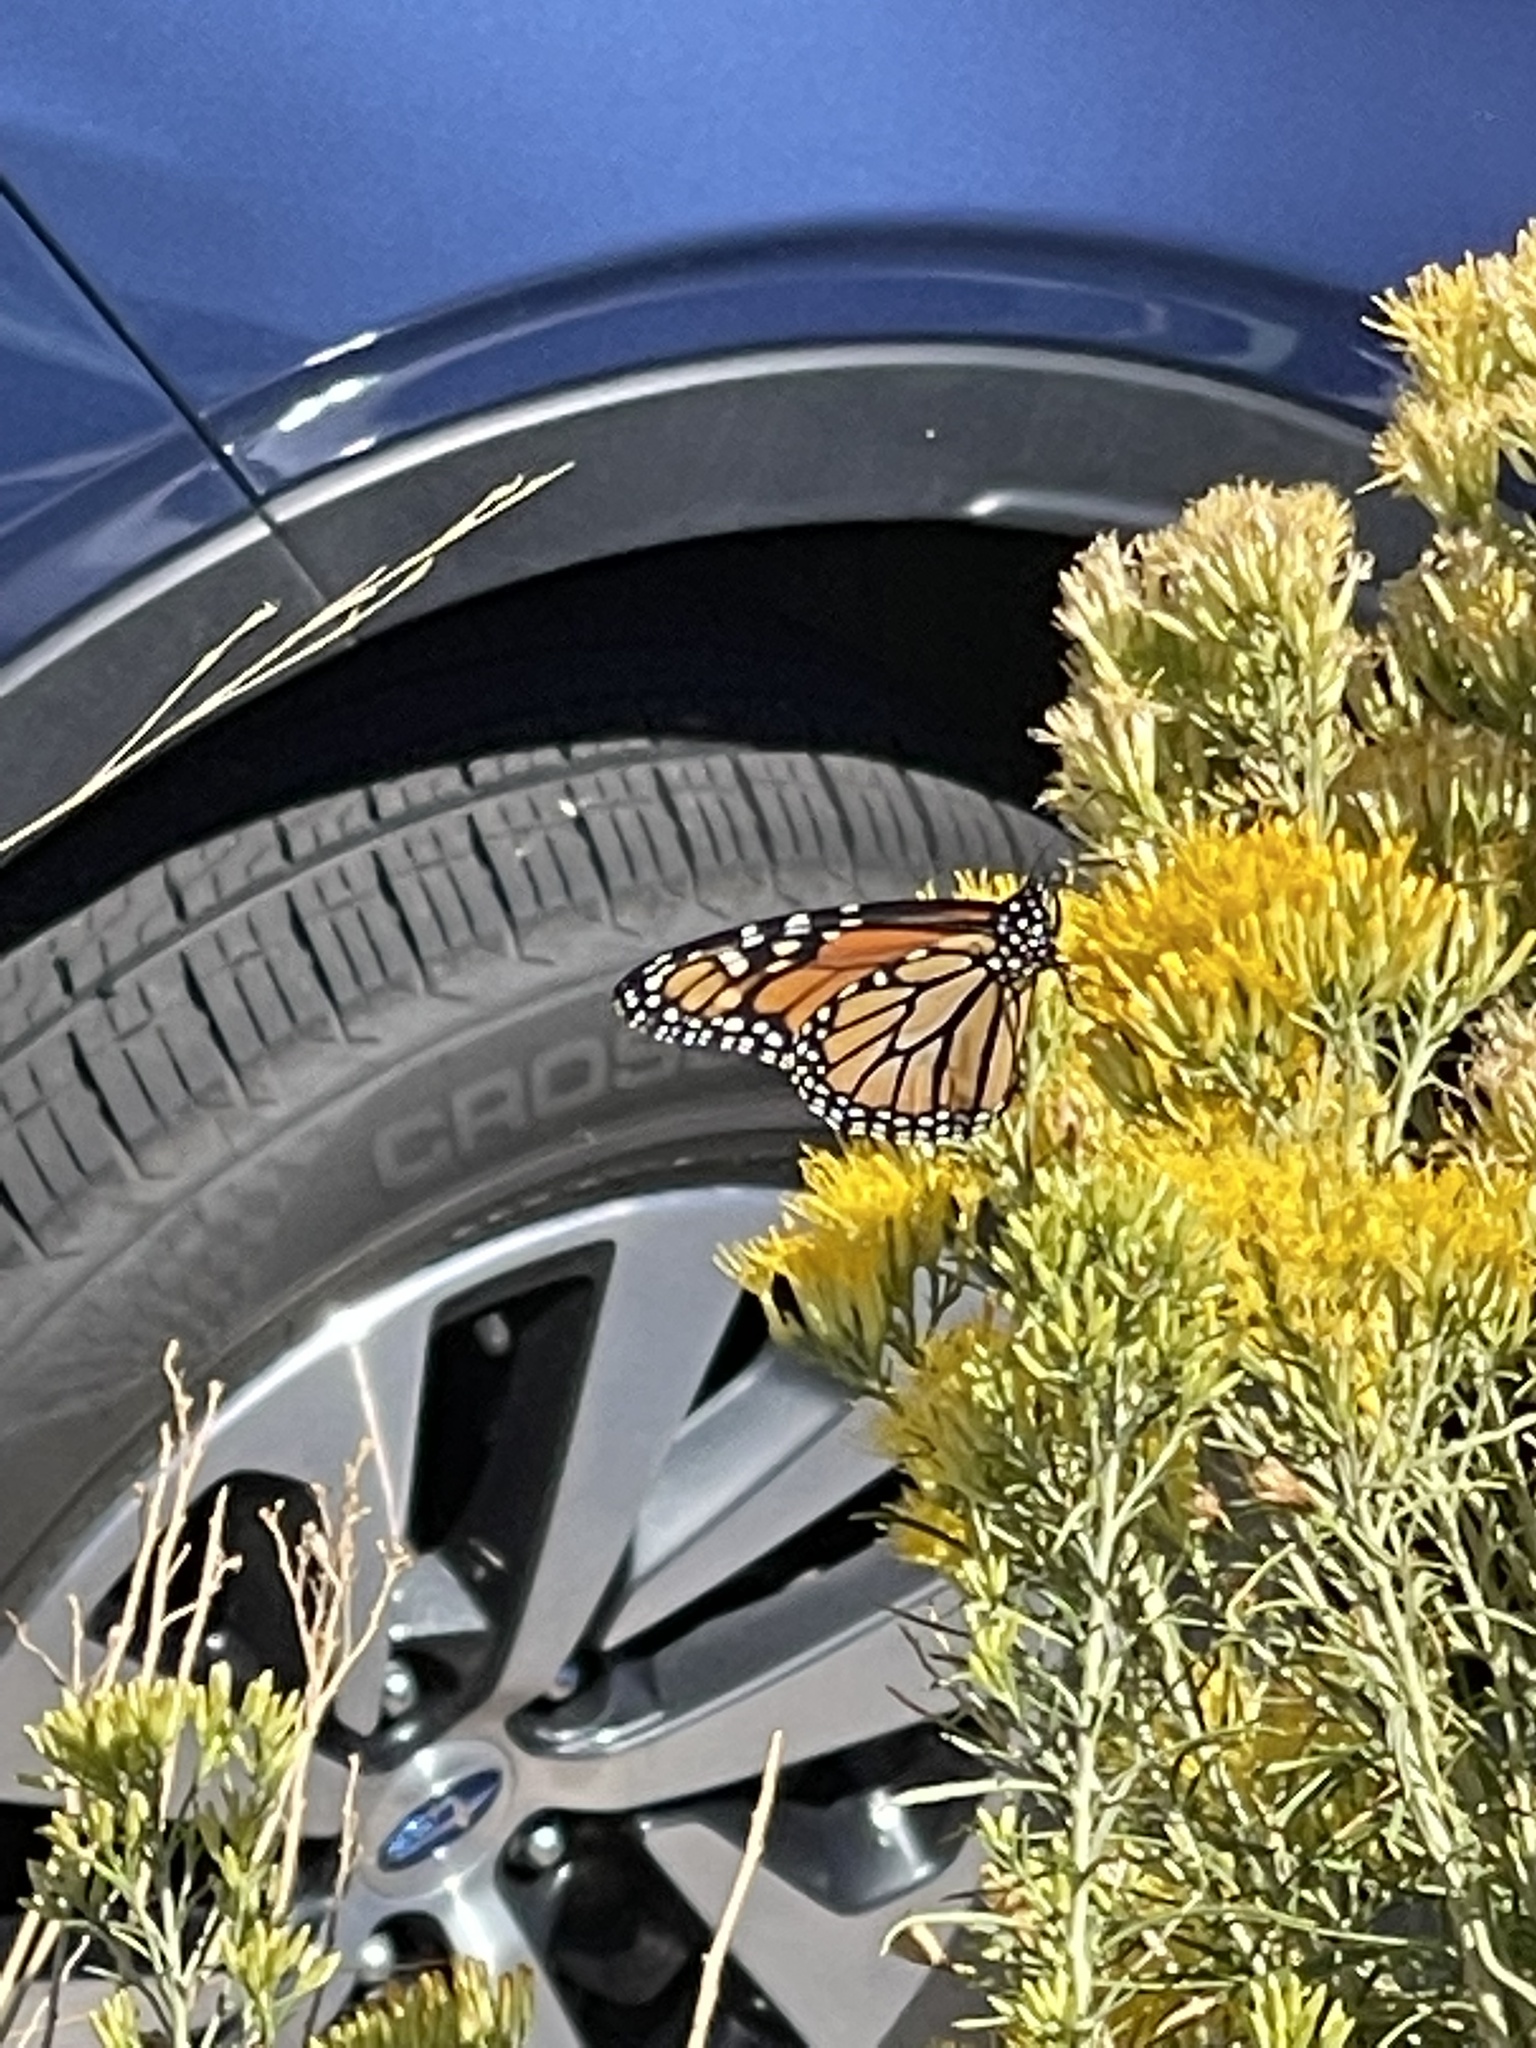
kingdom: Animalia
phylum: Arthropoda
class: Insecta
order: Lepidoptera
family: Nymphalidae
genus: Danaus
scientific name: Danaus plexippus
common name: Monarch
